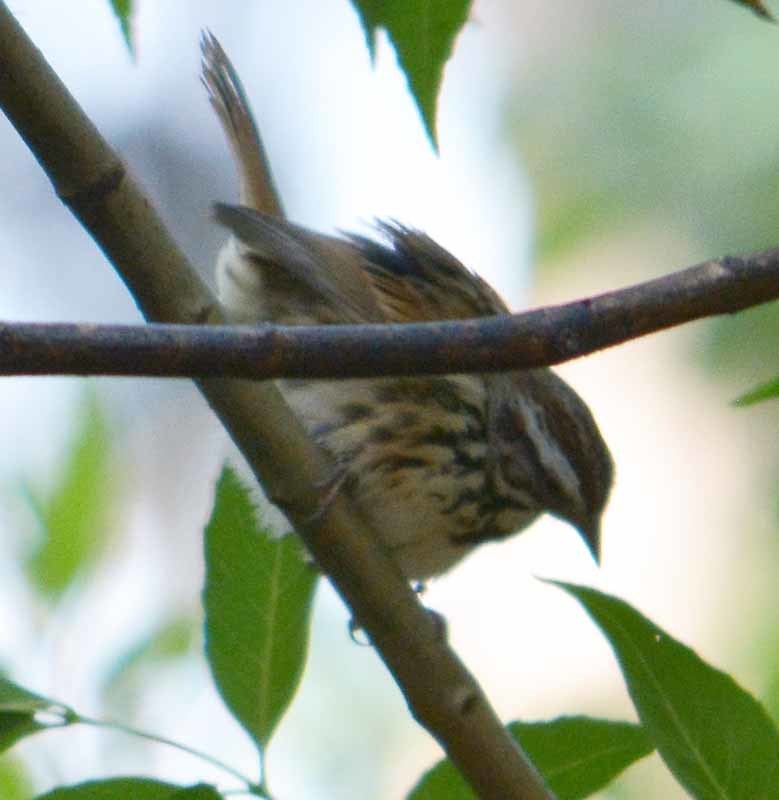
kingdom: Animalia
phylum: Chordata
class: Aves
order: Passeriformes
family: Passerellidae
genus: Melospiza
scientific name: Melospiza melodia
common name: Song sparrow
